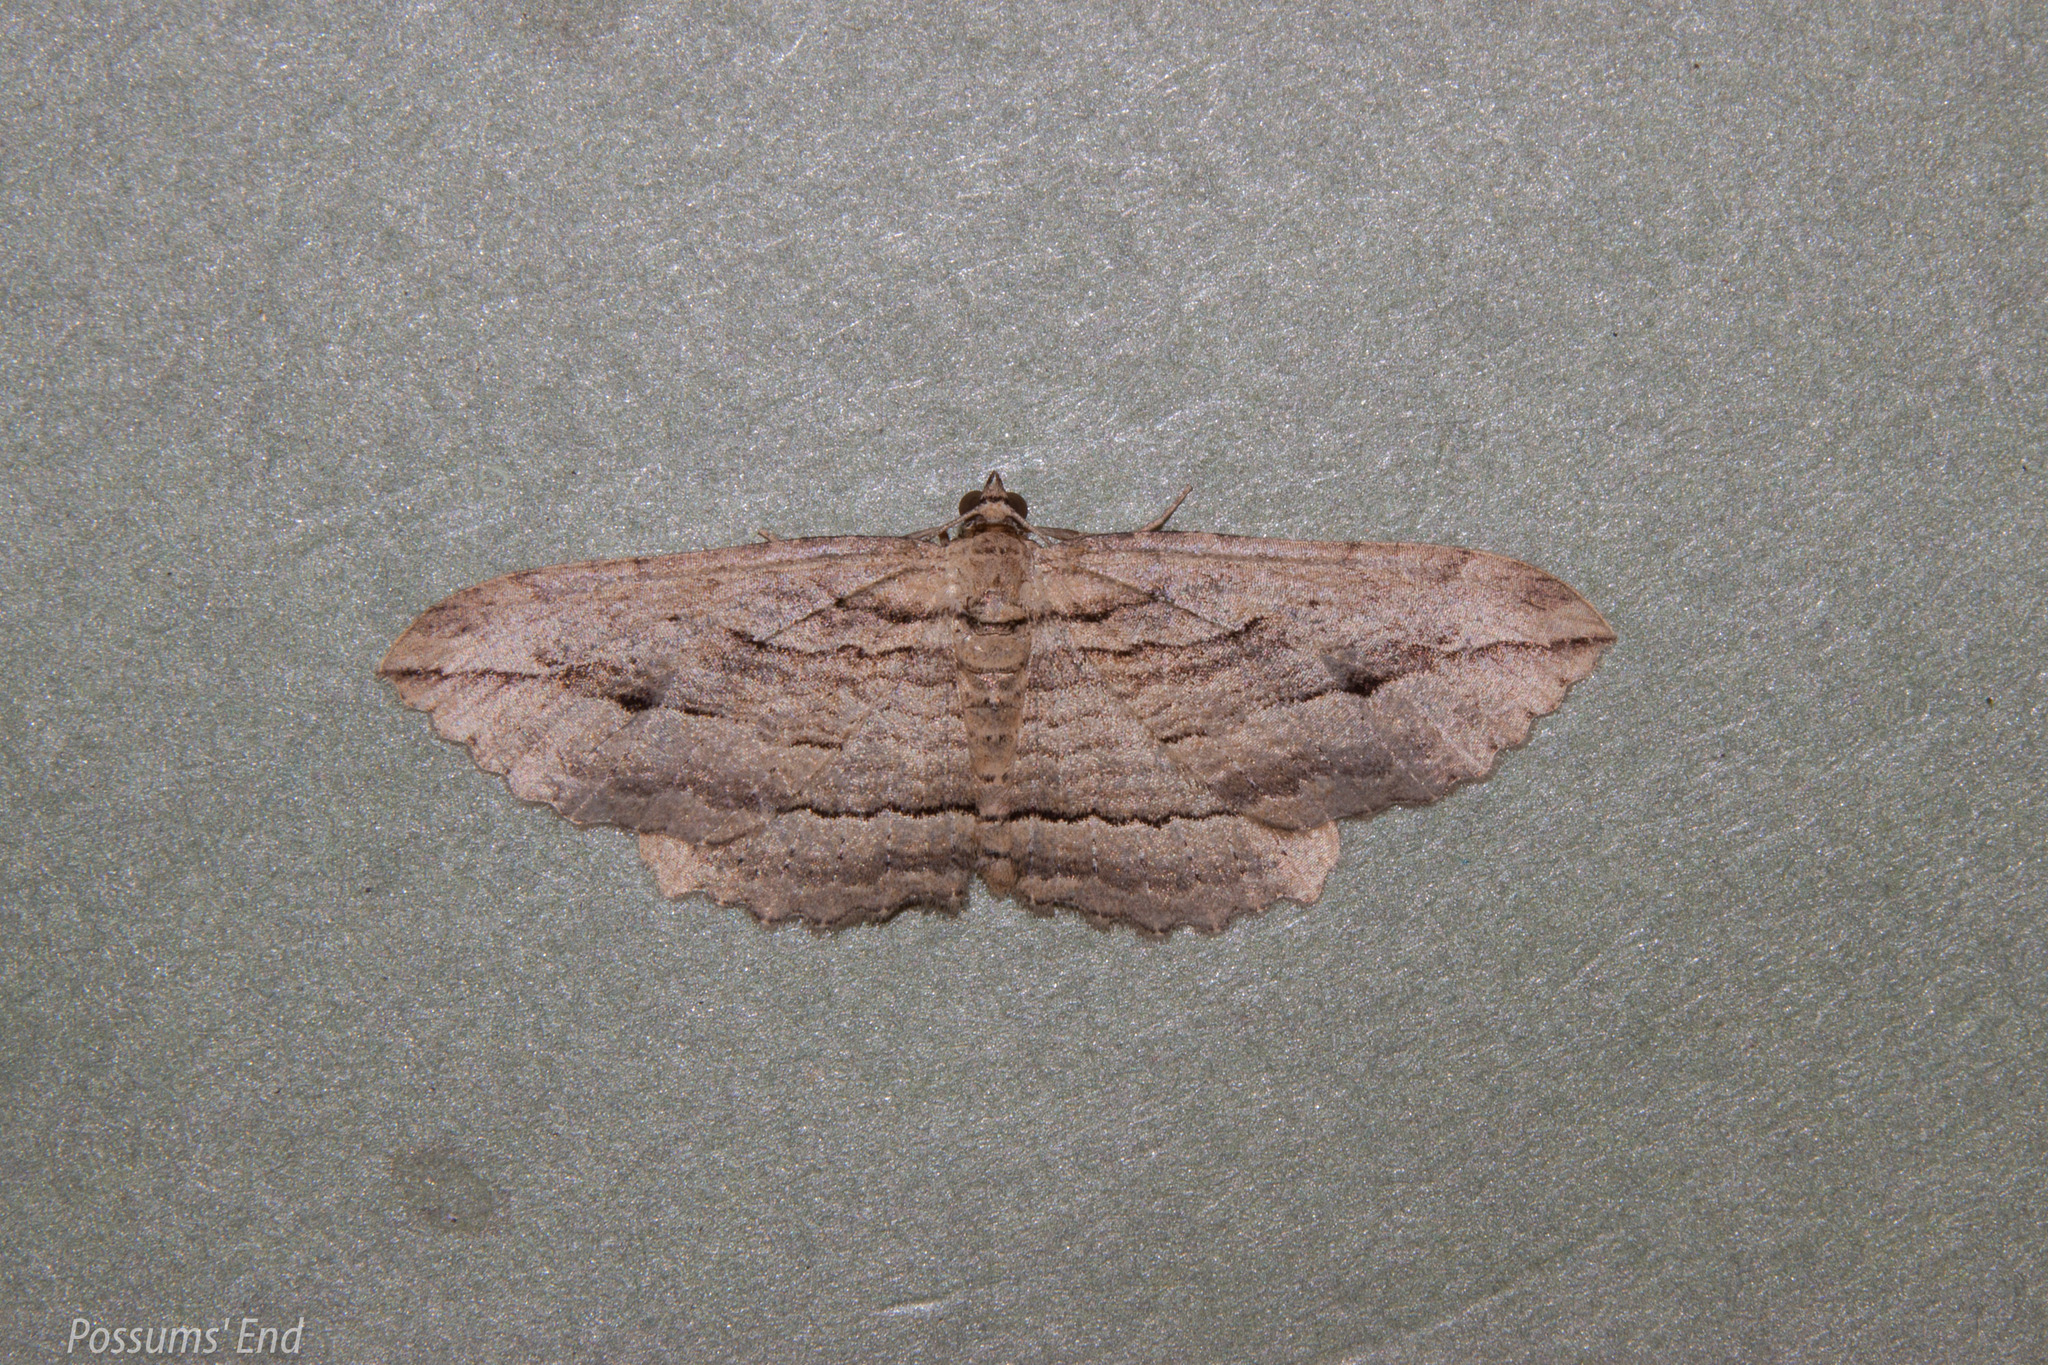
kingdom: Animalia
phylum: Arthropoda
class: Insecta
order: Lepidoptera
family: Geometridae
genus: Austrocidaria
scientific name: Austrocidaria gobiata
